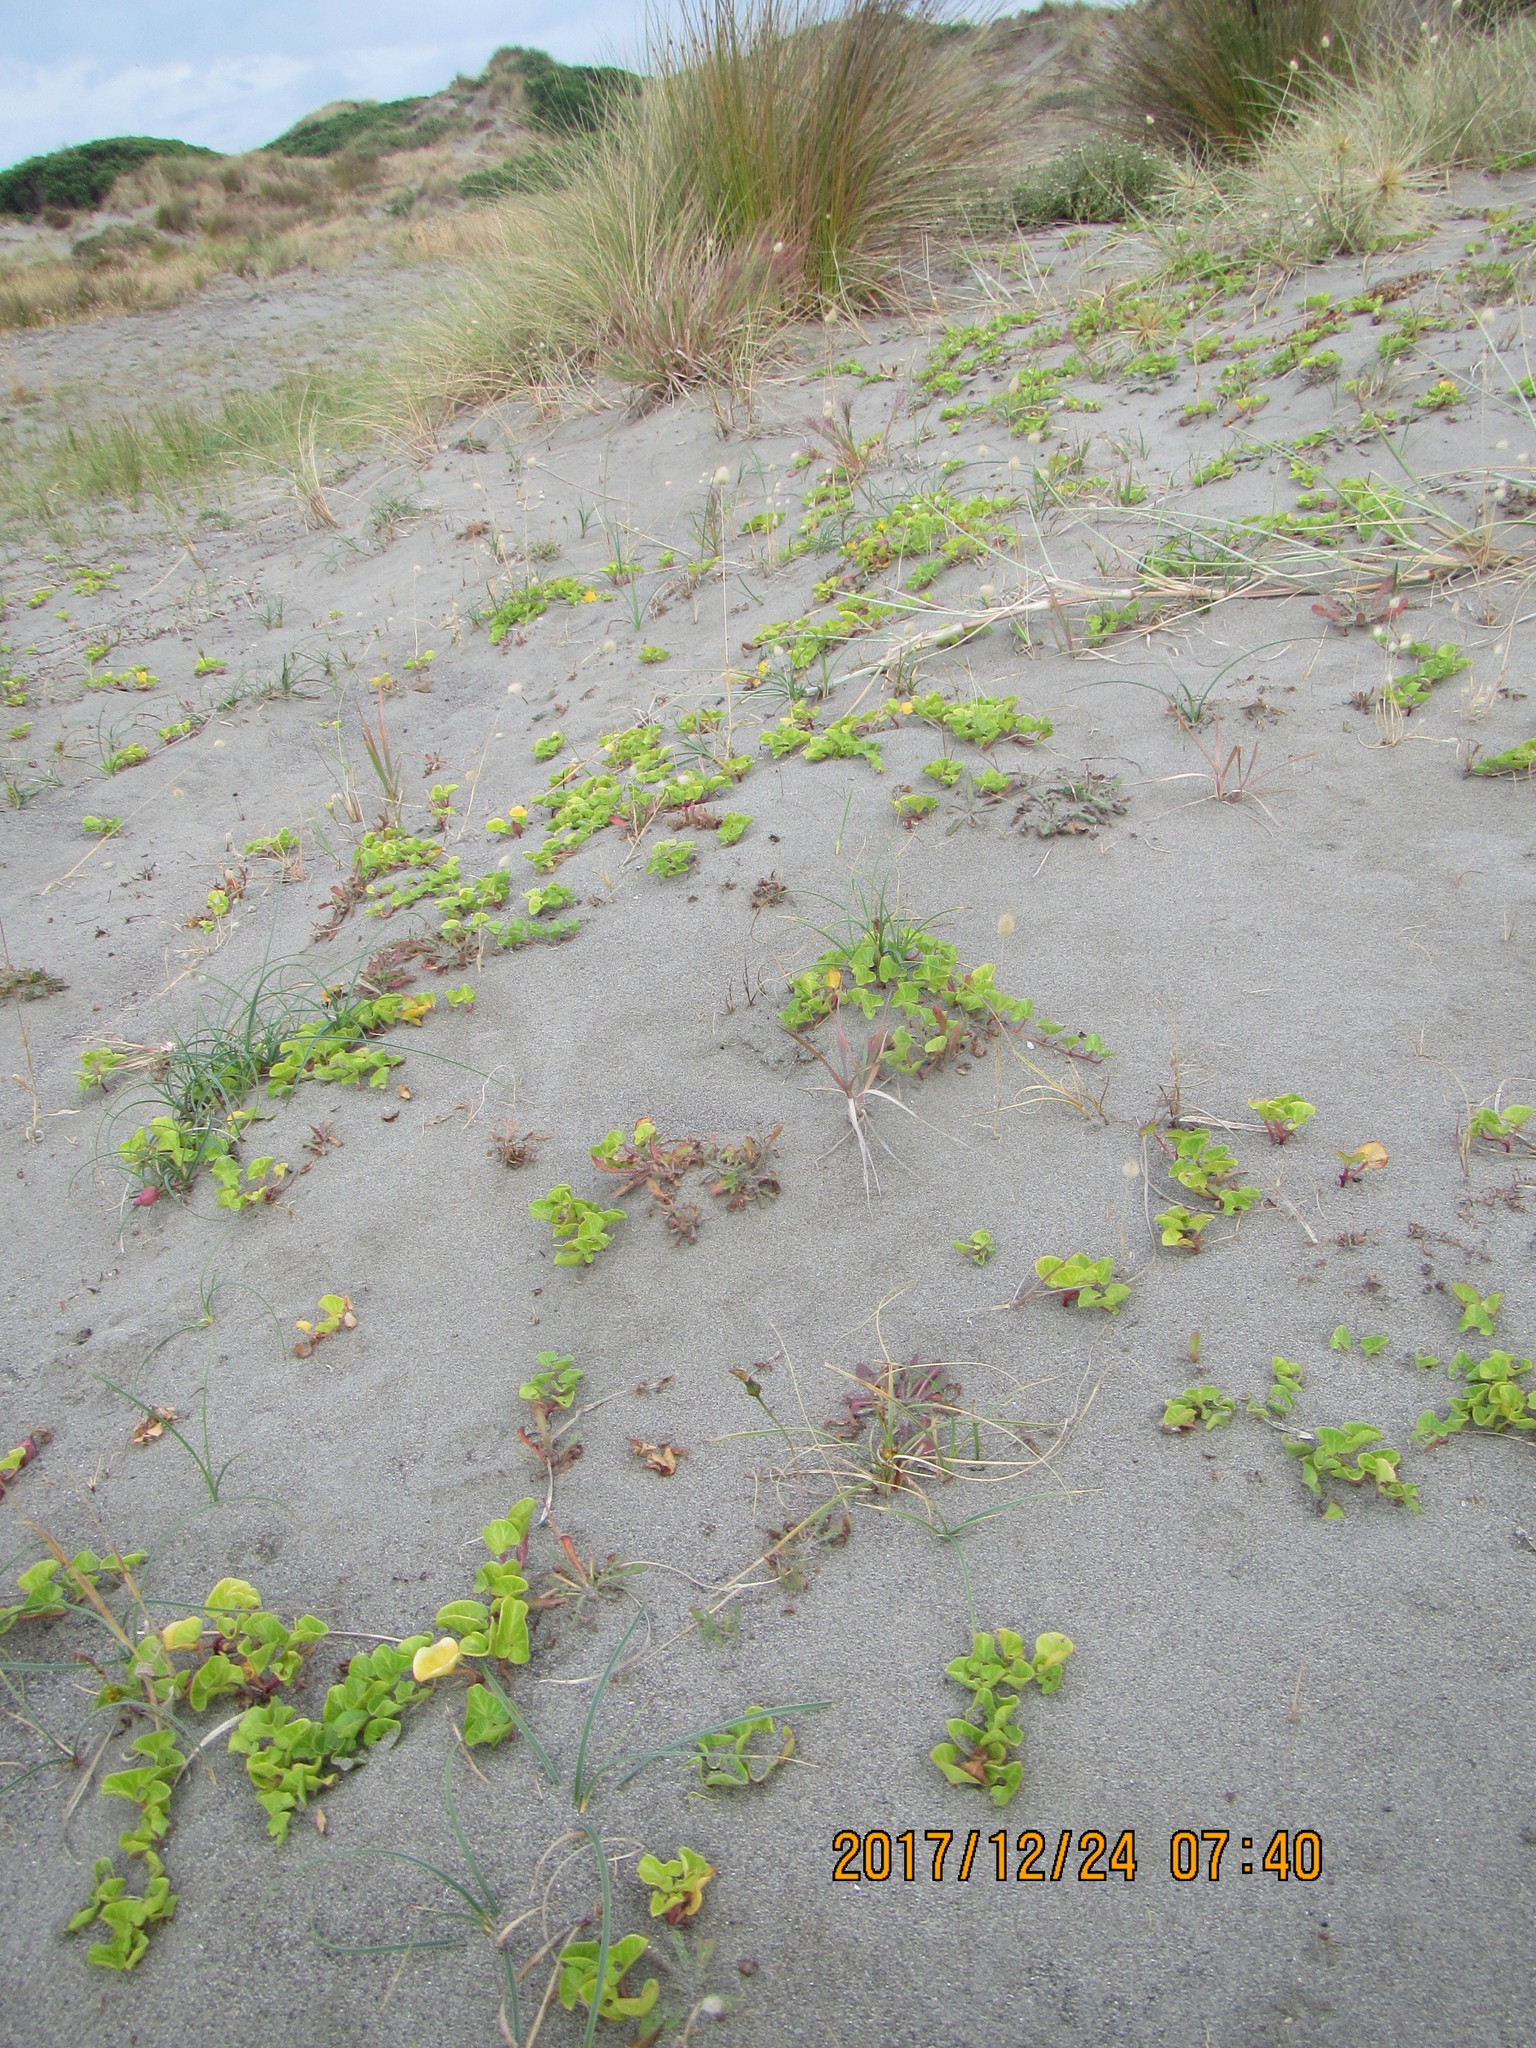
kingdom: Plantae
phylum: Tracheophyta
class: Magnoliopsida
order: Solanales
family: Convolvulaceae
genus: Calystegia
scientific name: Calystegia soldanella
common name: Sea bindweed
